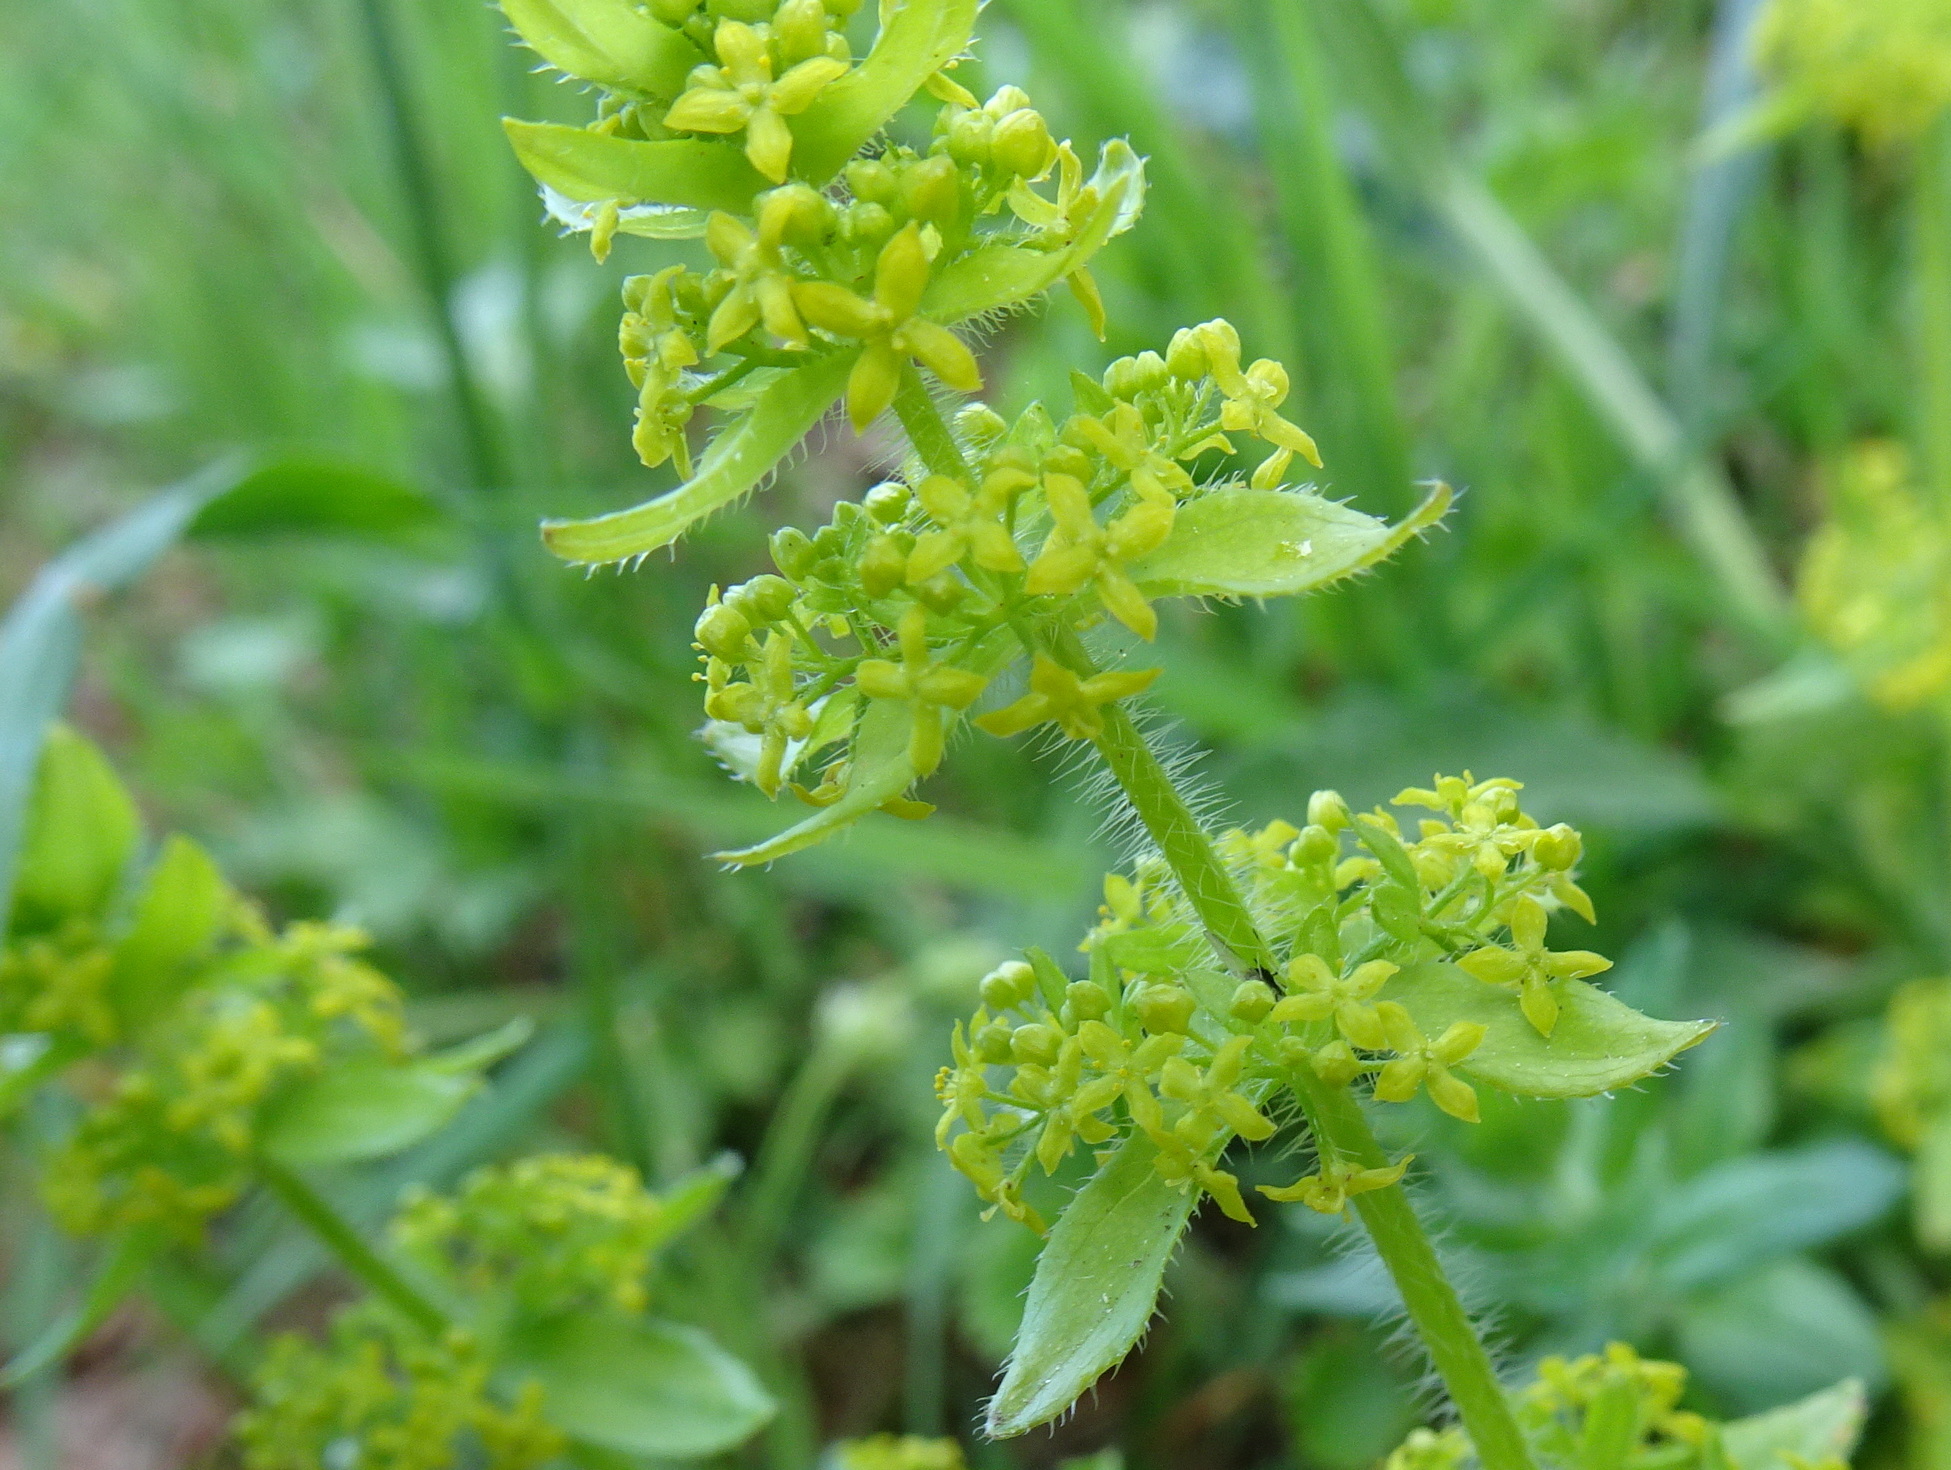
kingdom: Plantae
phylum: Tracheophyta
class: Magnoliopsida
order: Gentianales
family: Rubiaceae
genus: Cruciata
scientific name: Cruciata laevipes
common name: Crosswort
